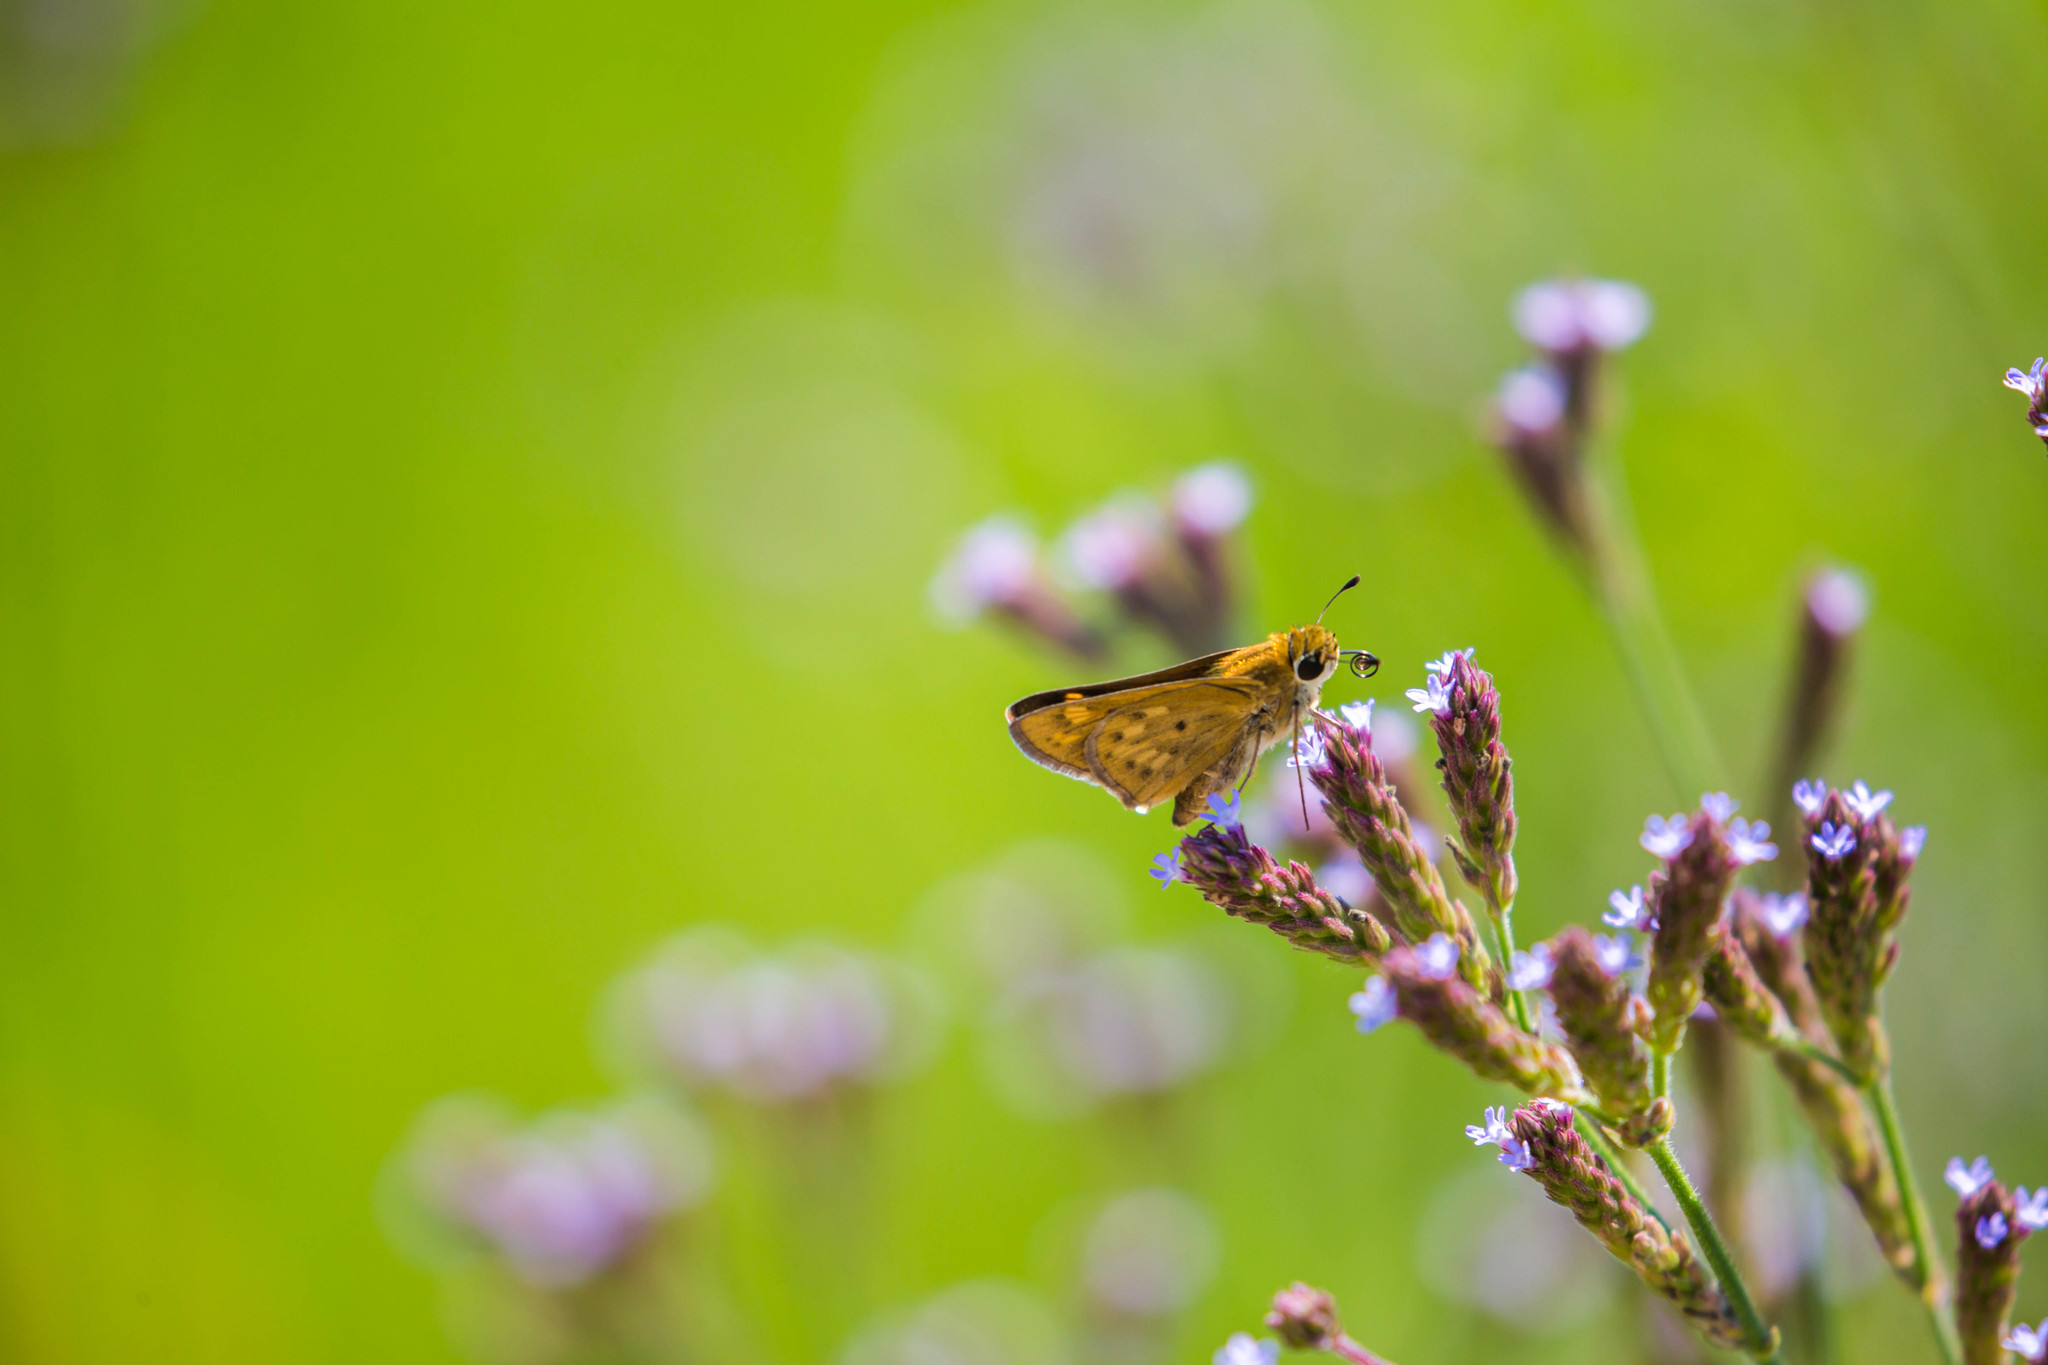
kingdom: Animalia
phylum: Arthropoda
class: Insecta
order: Lepidoptera
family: Hesperiidae
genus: Hylephila
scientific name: Hylephila phyleus
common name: Fiery skipper
